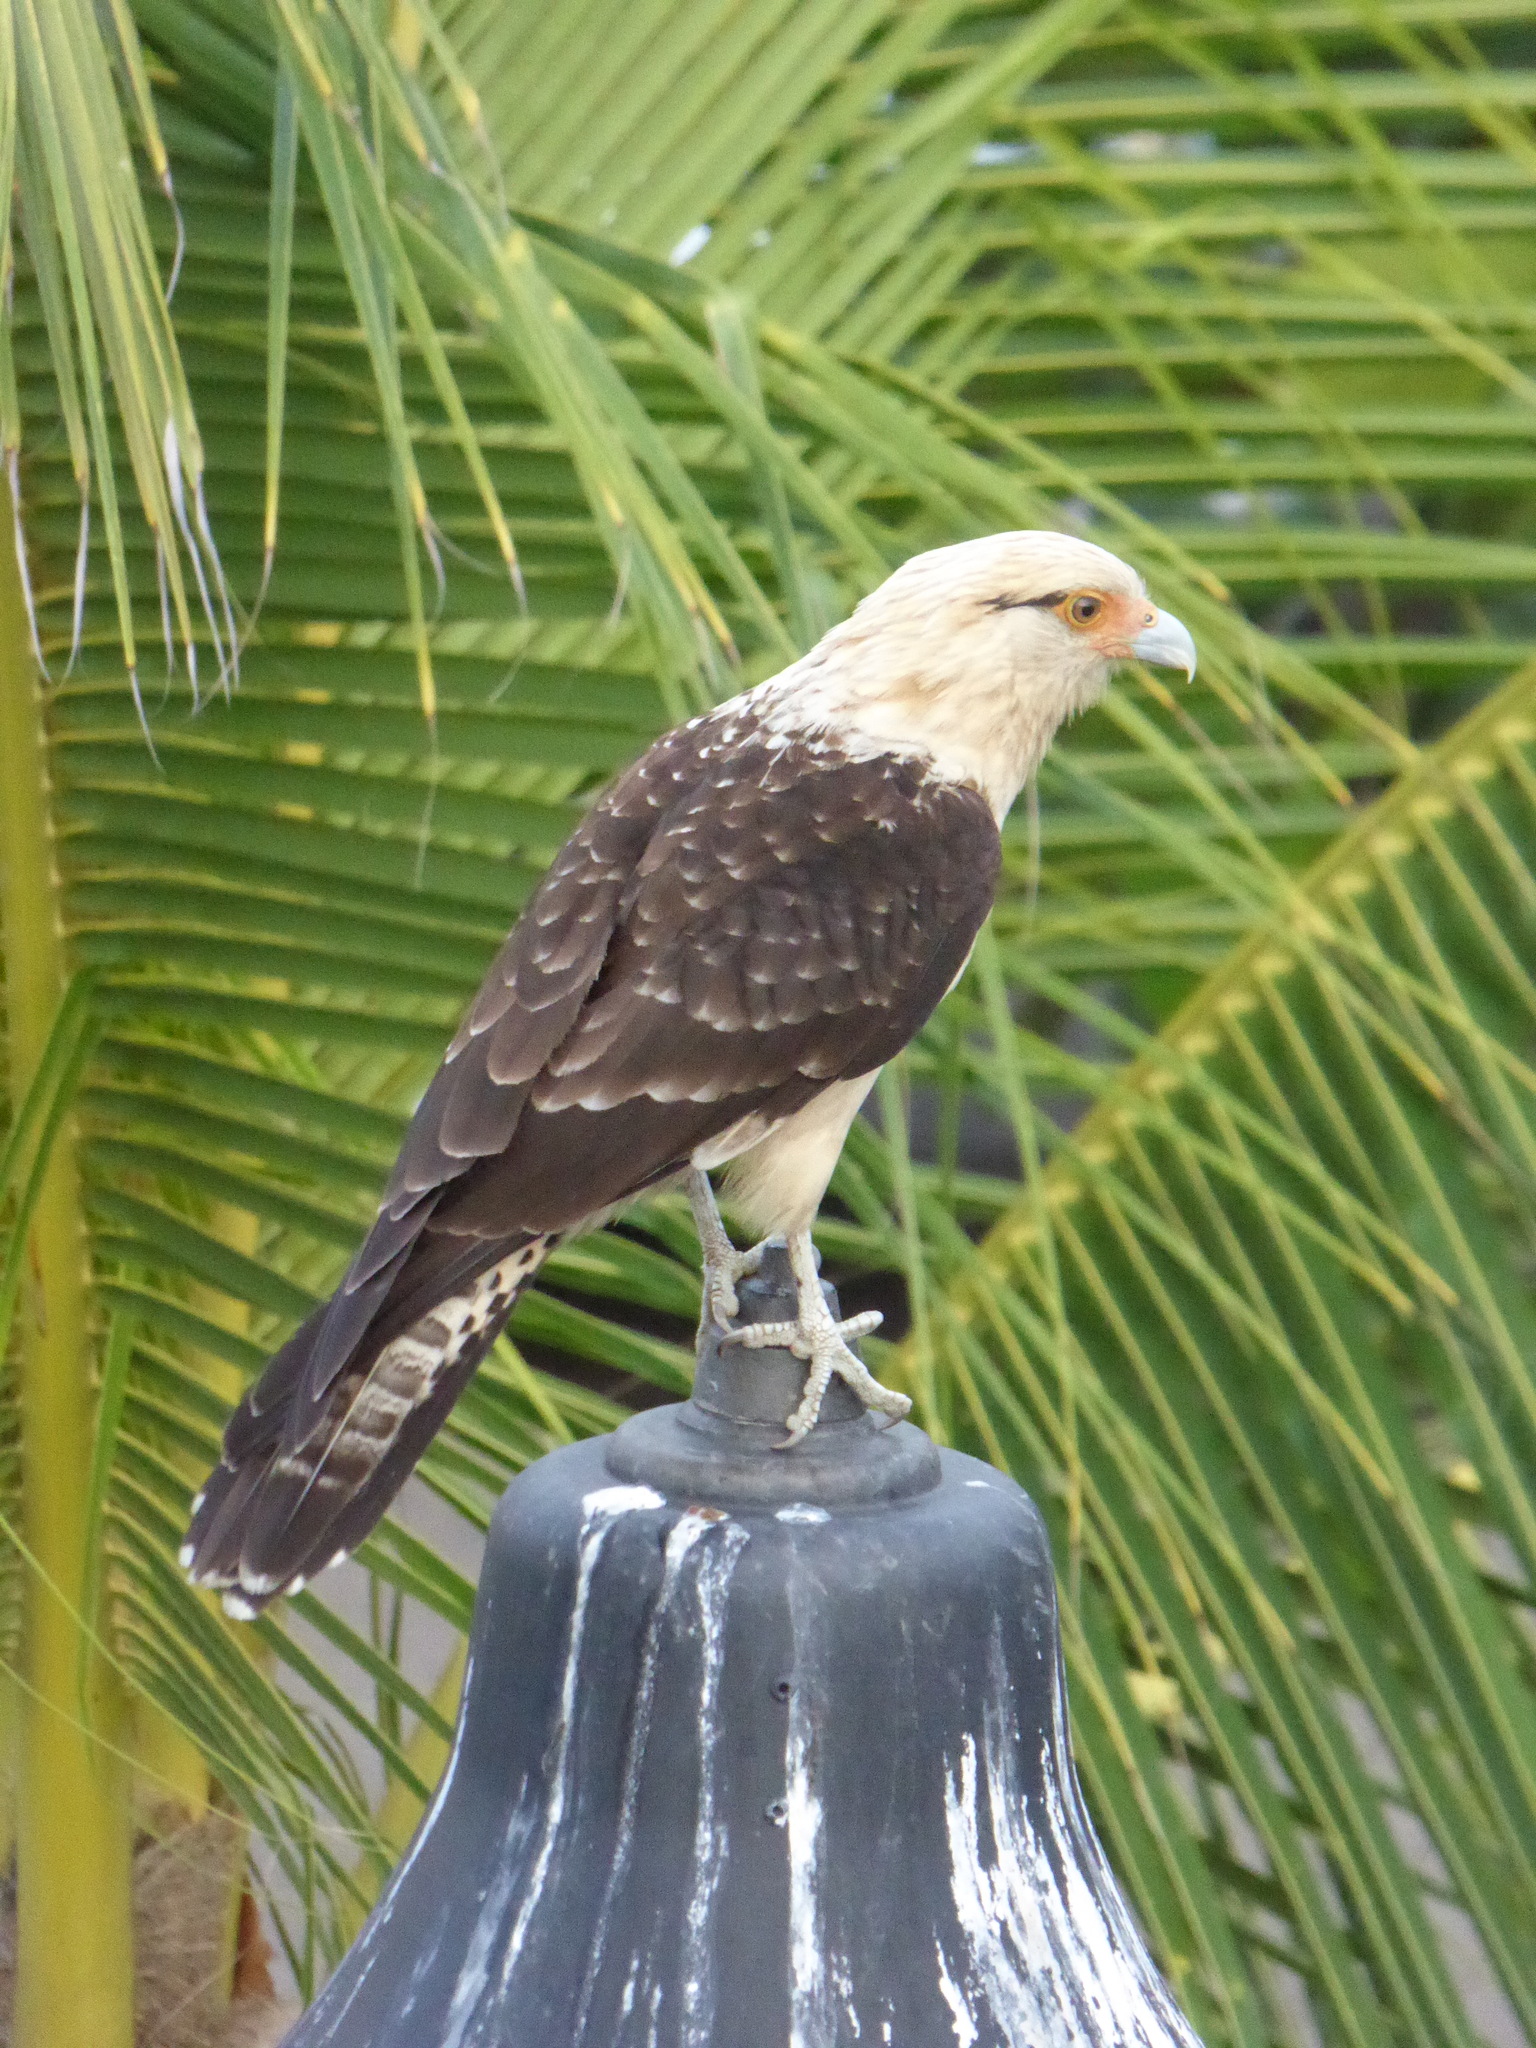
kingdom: Animalia
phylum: Chordata
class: Aves
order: Falconiformes
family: Falconidae
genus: Daptrius
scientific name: Daptrius
